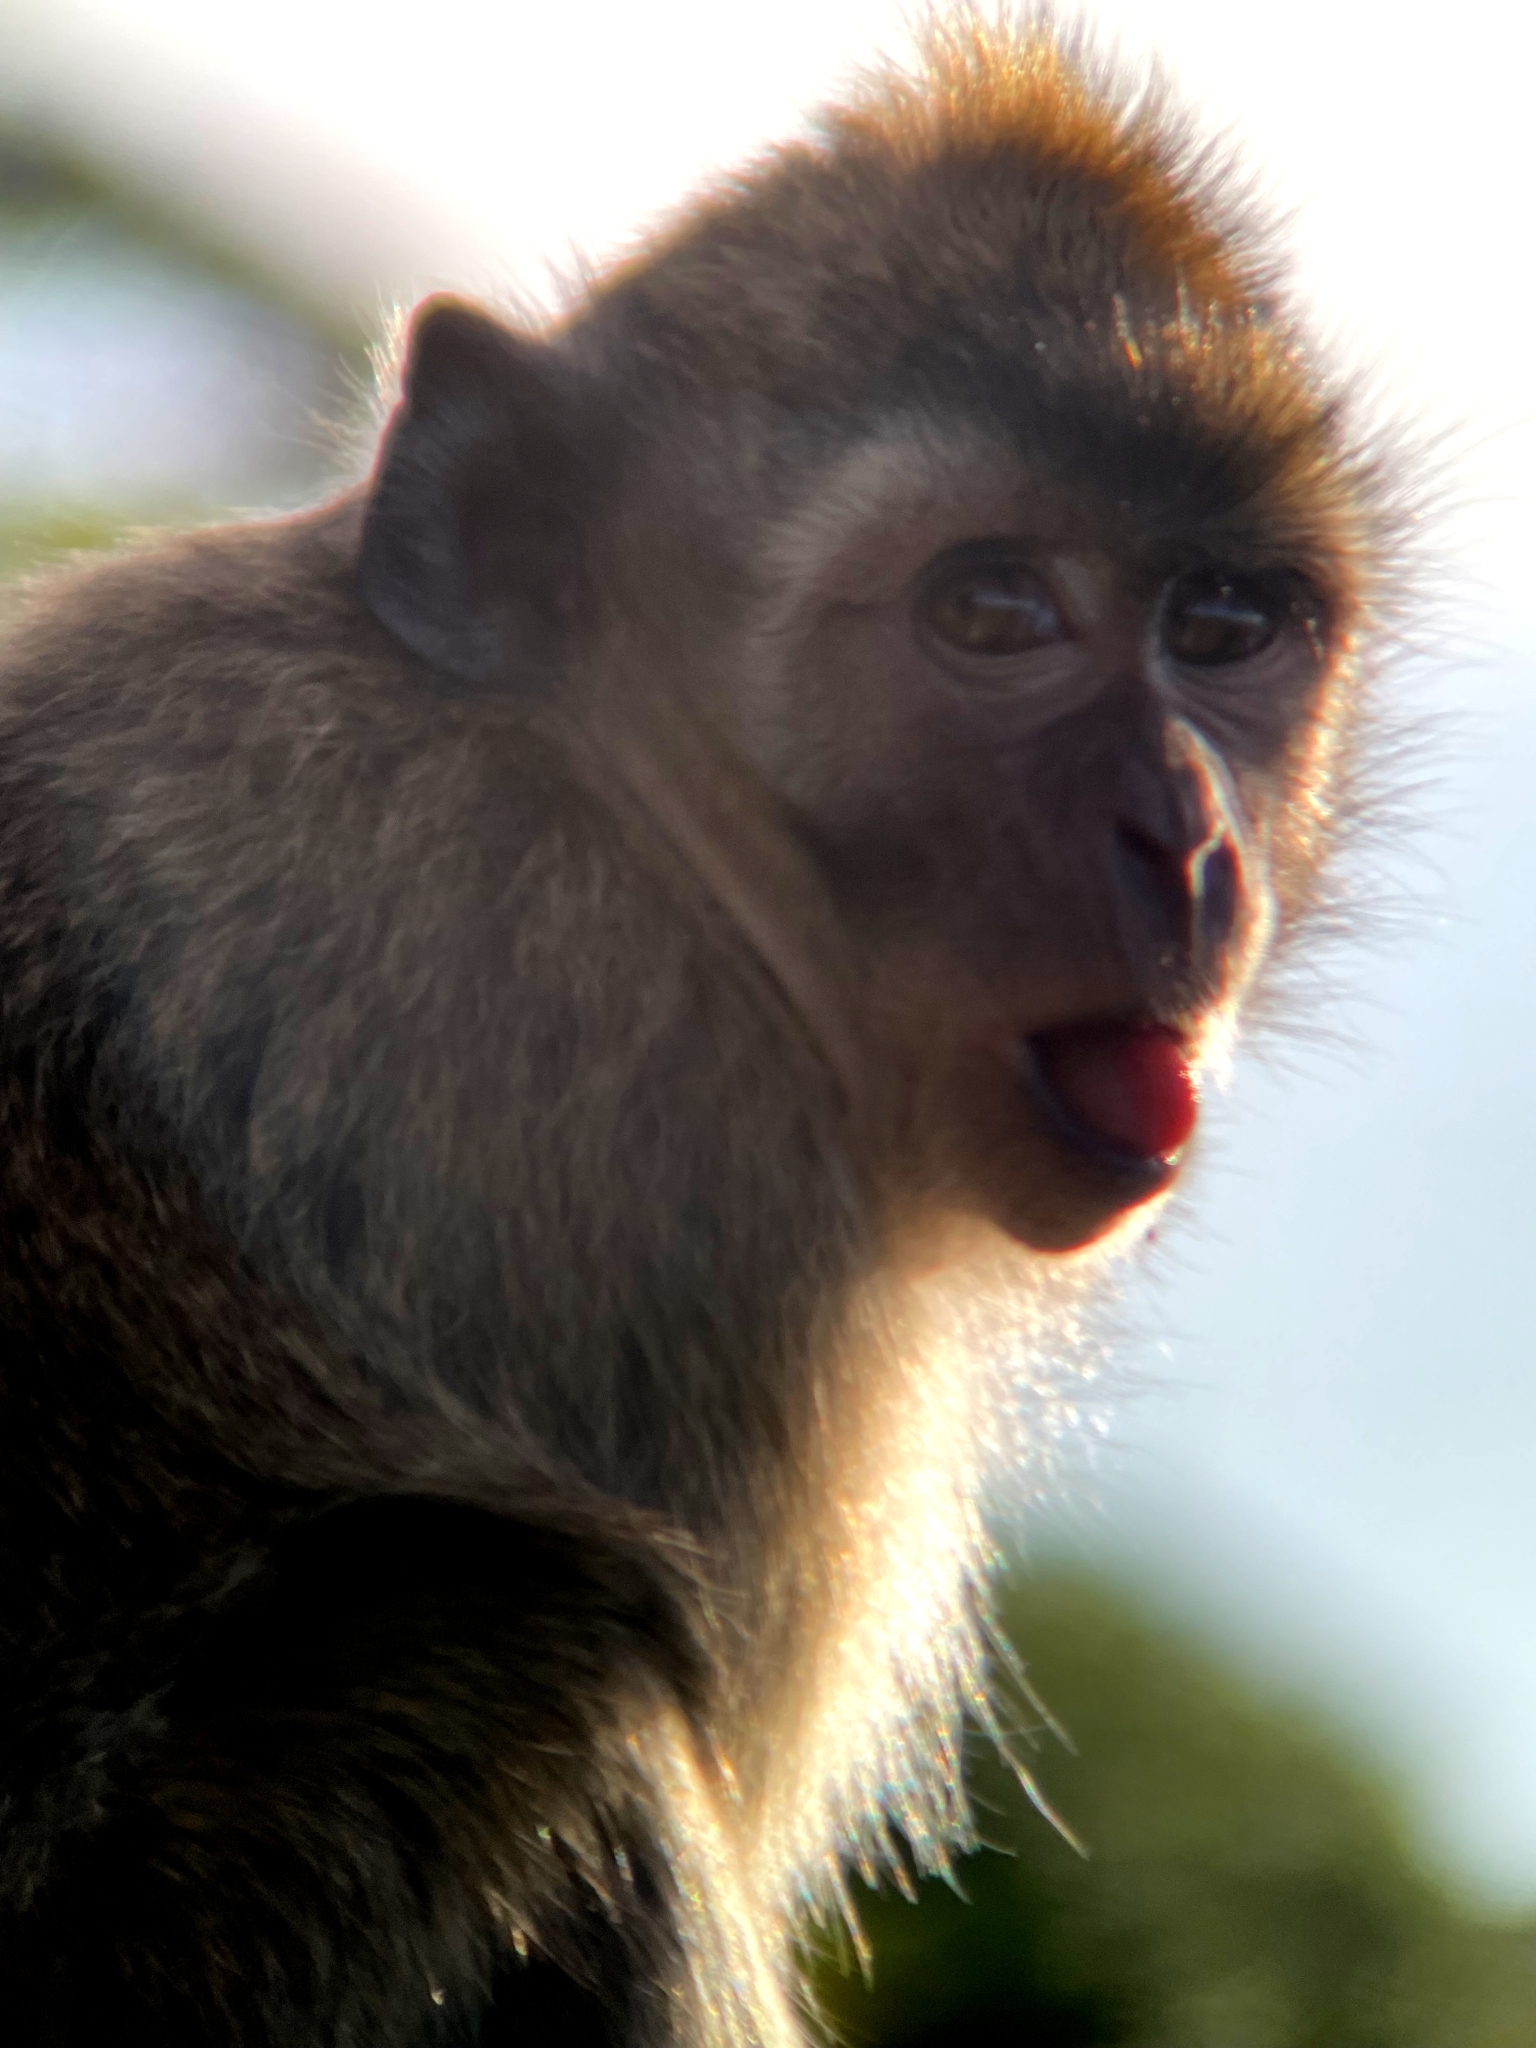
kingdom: Animalia
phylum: Chordata
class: Mammalia
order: Primates
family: Cercopithecidae
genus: Macaca
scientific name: Macaca fascicularis
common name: Crab-eating macaque
